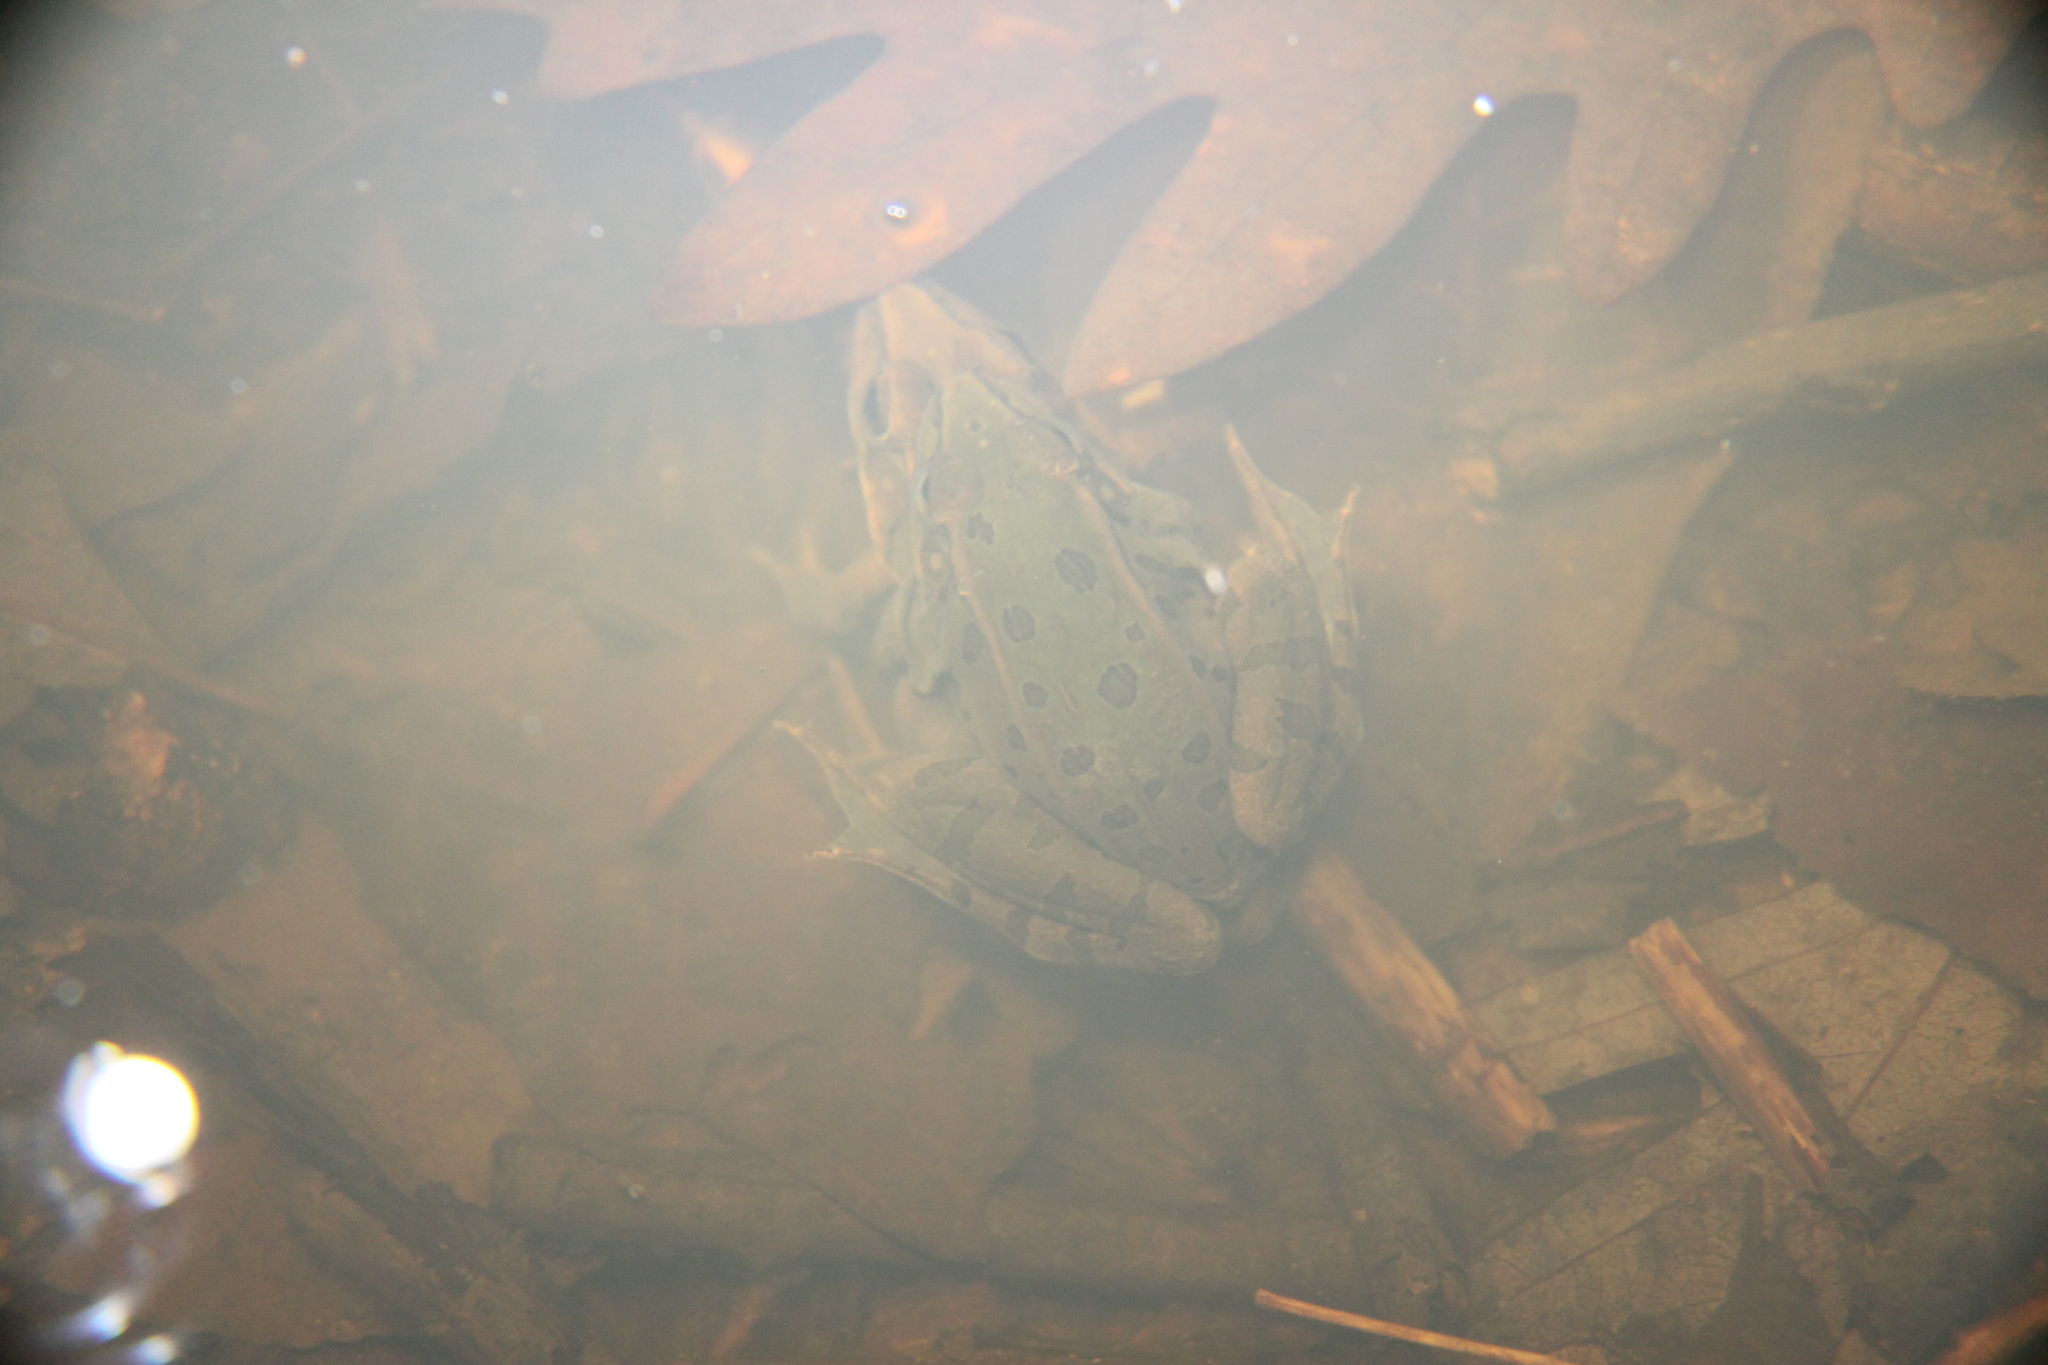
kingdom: Animalia
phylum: Chordata
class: Amphibia
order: Anura
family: Ranidae
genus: Lithobates
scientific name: Lithobates sphenocephalus
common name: Southern leopard frog
